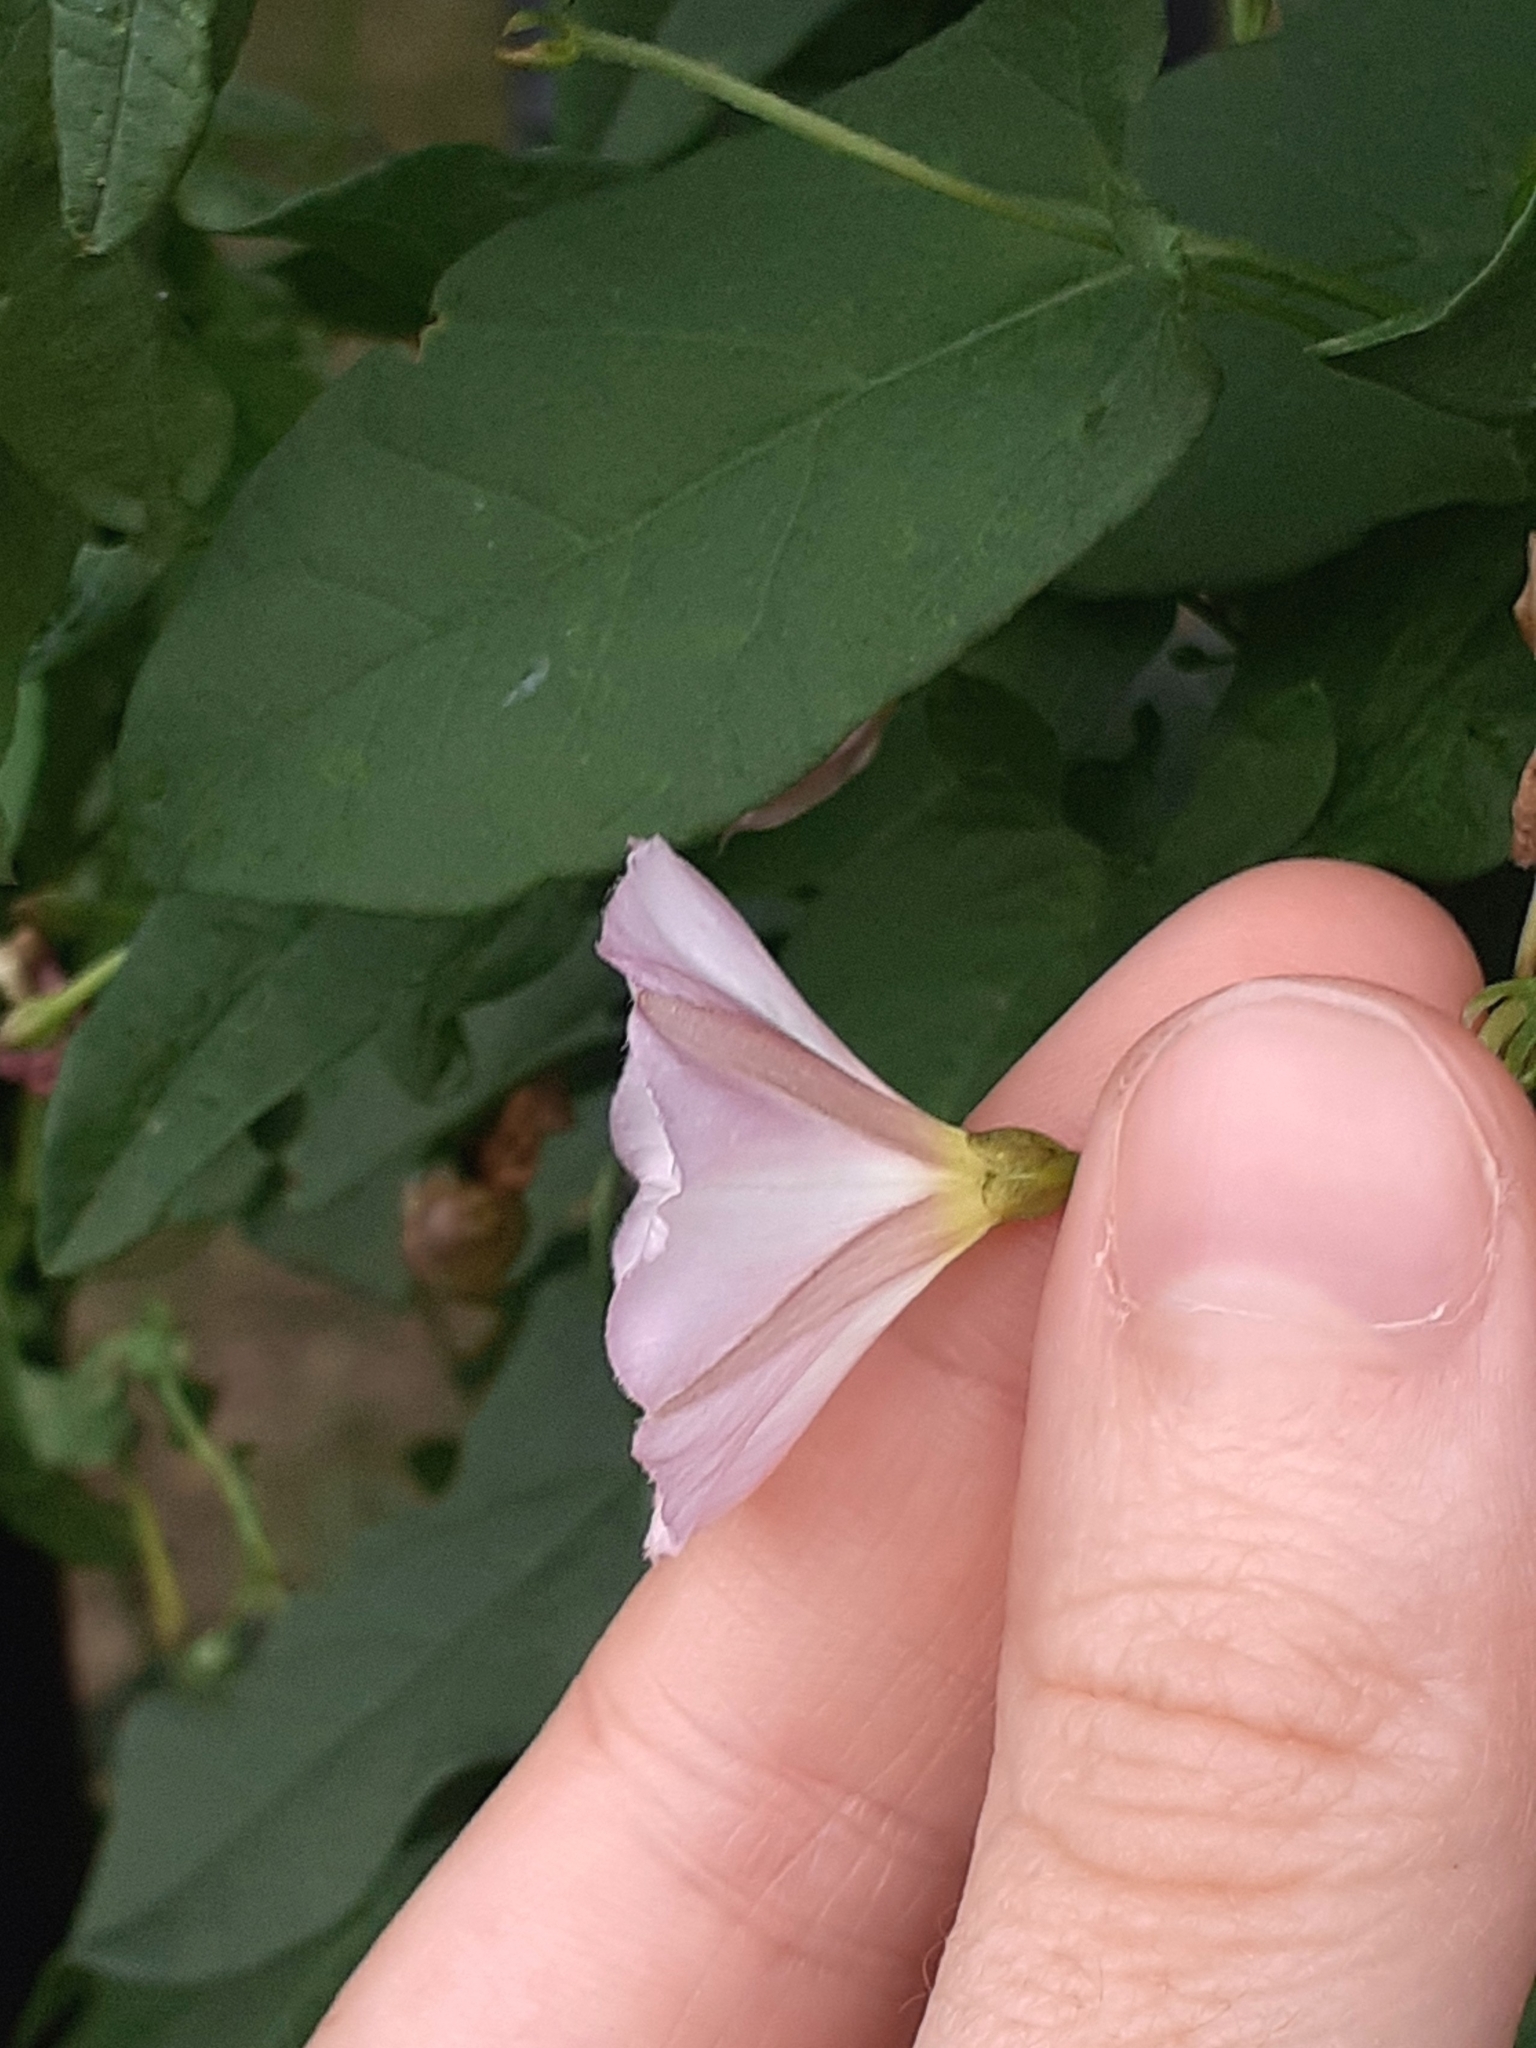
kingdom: Plantae
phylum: Tracheophyta
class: Magnoliopsida
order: Solanales
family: Convolvulaceae
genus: Convolvulus
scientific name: Convolvulus arvensis
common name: Field bindweed
